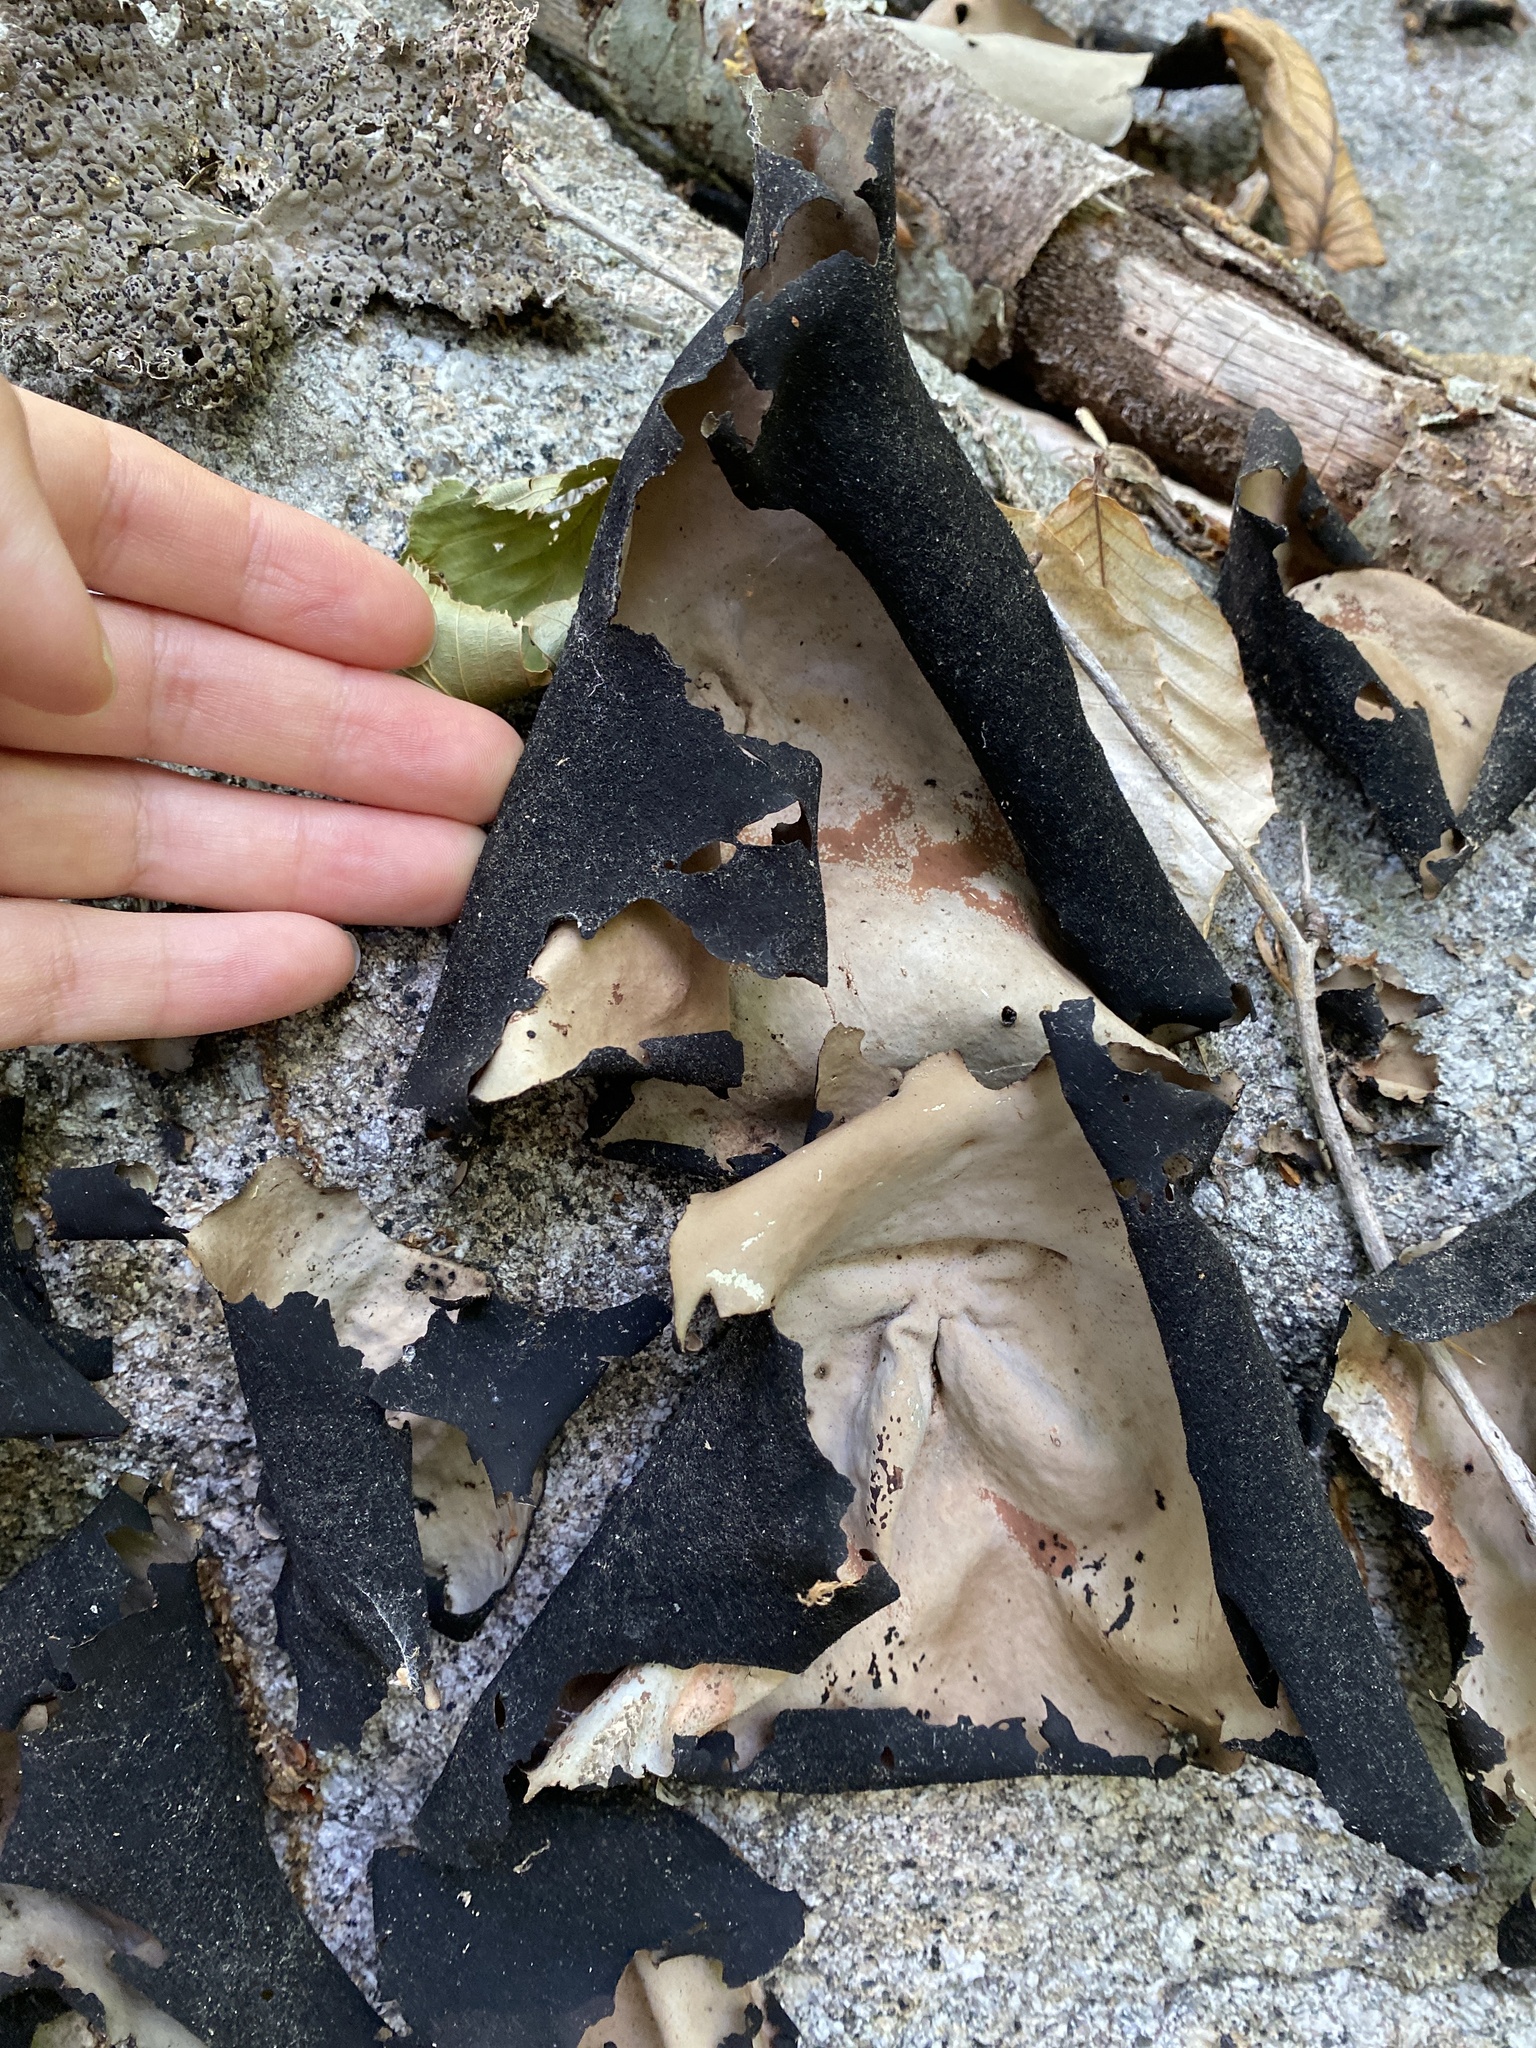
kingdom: Fungi
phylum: Ascomycota
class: Lecanoromycetes
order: Umbilicariales
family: Umbilicariaceae
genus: Umbilicaria
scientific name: Umbilicaria mammulata
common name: Smooth rock tripe
